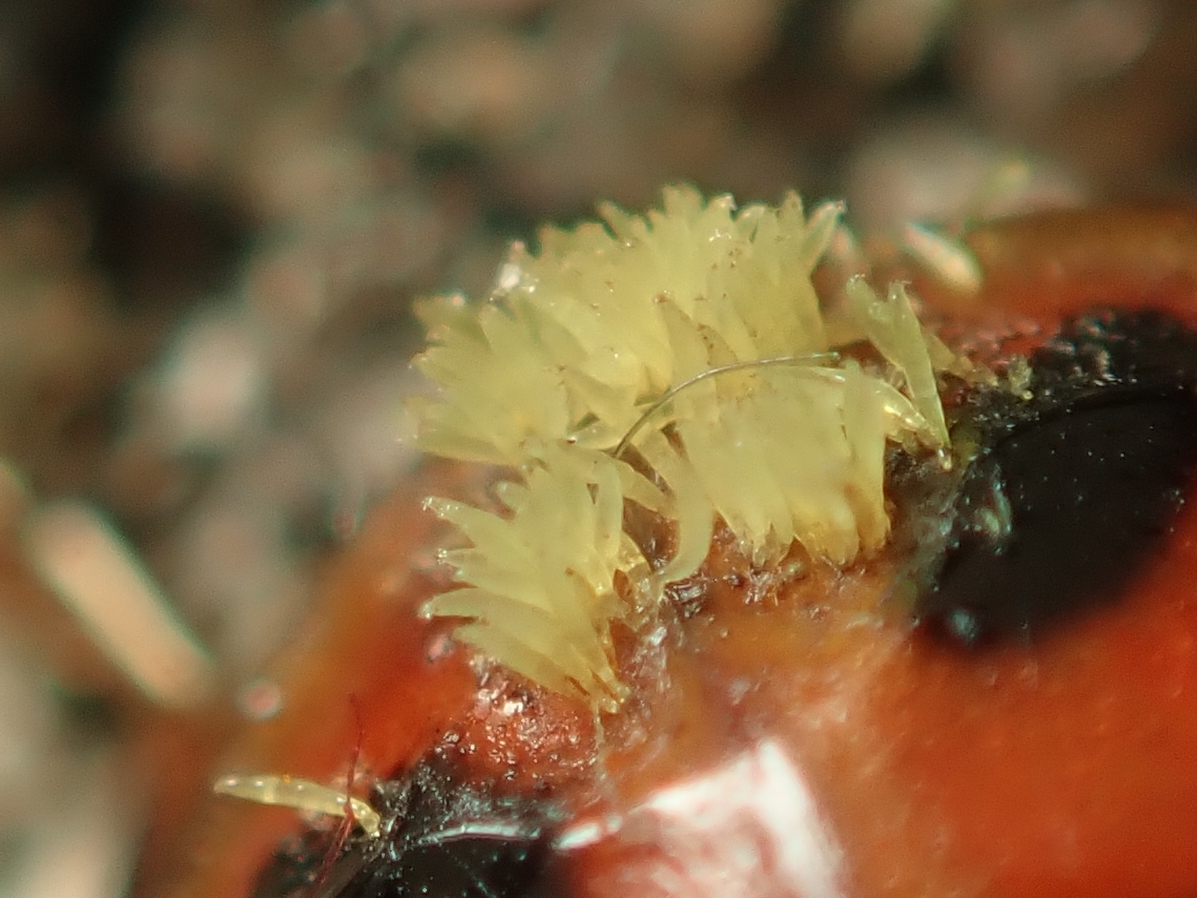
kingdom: Fungi
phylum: Ascomycota
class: Laboulbeniomycetes
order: Laboulbeniales
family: Laboulbeniaceae
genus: Hesperomyces
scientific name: Hesperomyces harmoniae
